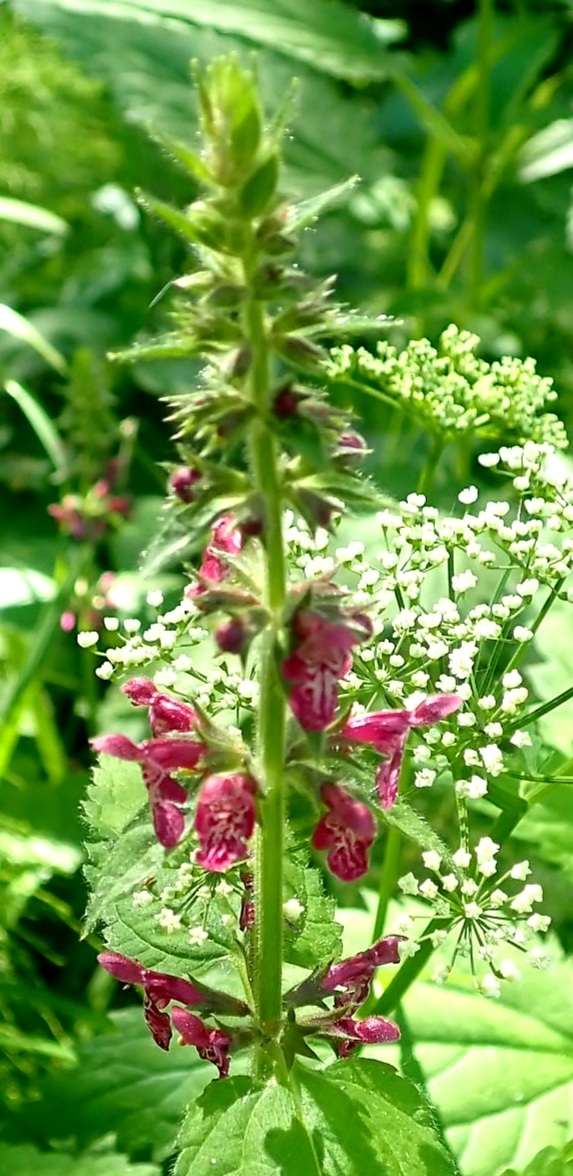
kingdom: Plantae
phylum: Tracheophyta
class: Magnoliopsida
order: Lamiales
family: Lamiaceae
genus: Stachys
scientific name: Stachys sylvatica
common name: Hedge woundwort
